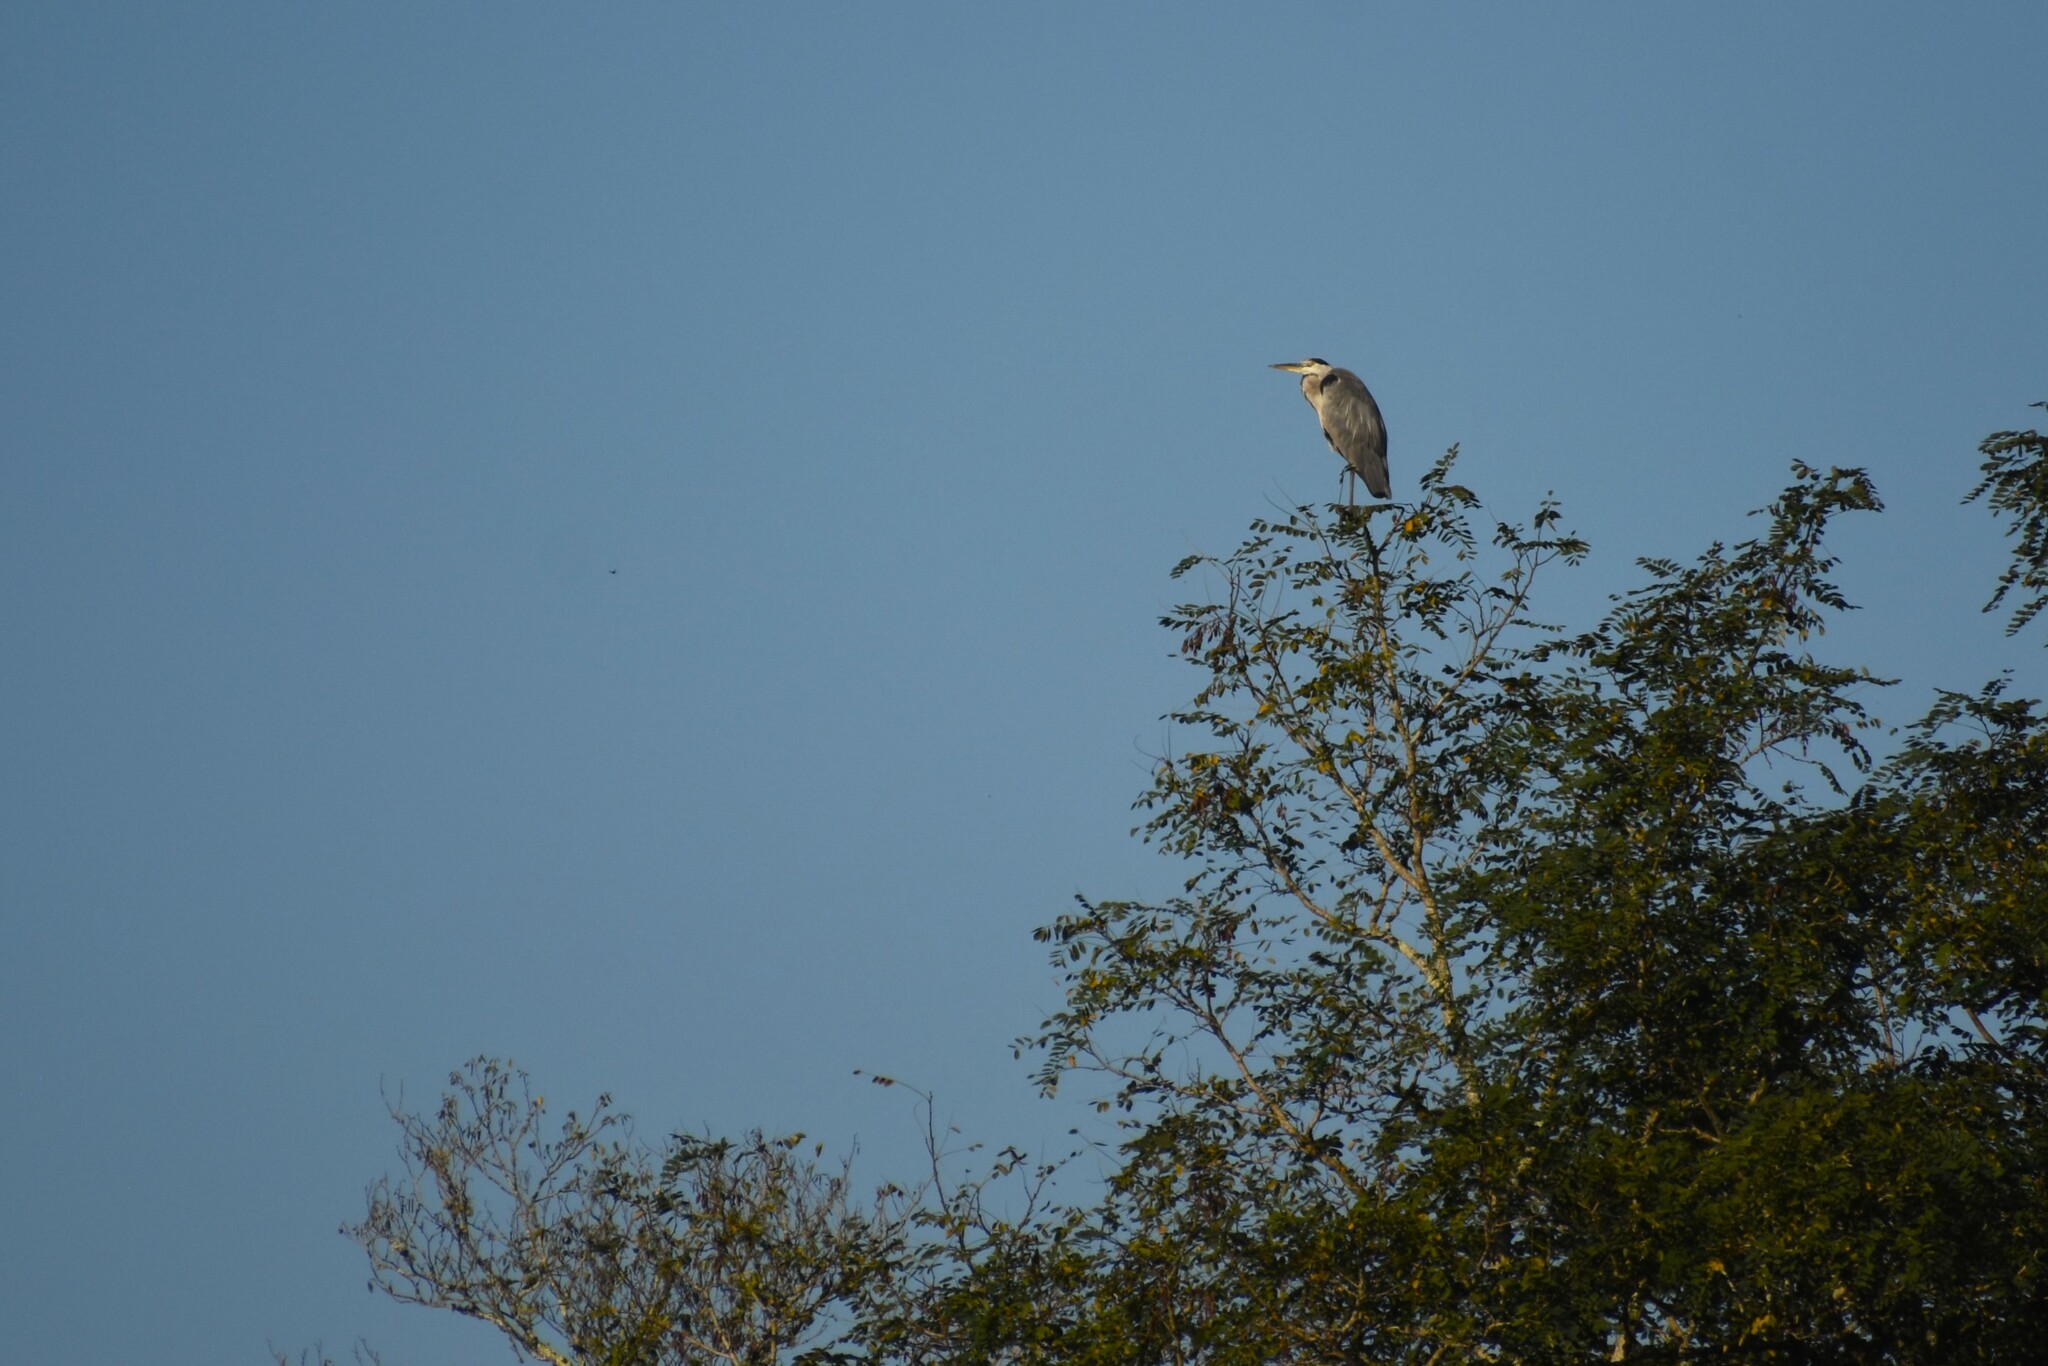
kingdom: Animalia
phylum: Chordata
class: Aves
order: Pelecaniformes
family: Ardeidae
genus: Ardea
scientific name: Ardea cinerea
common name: Grey heron
